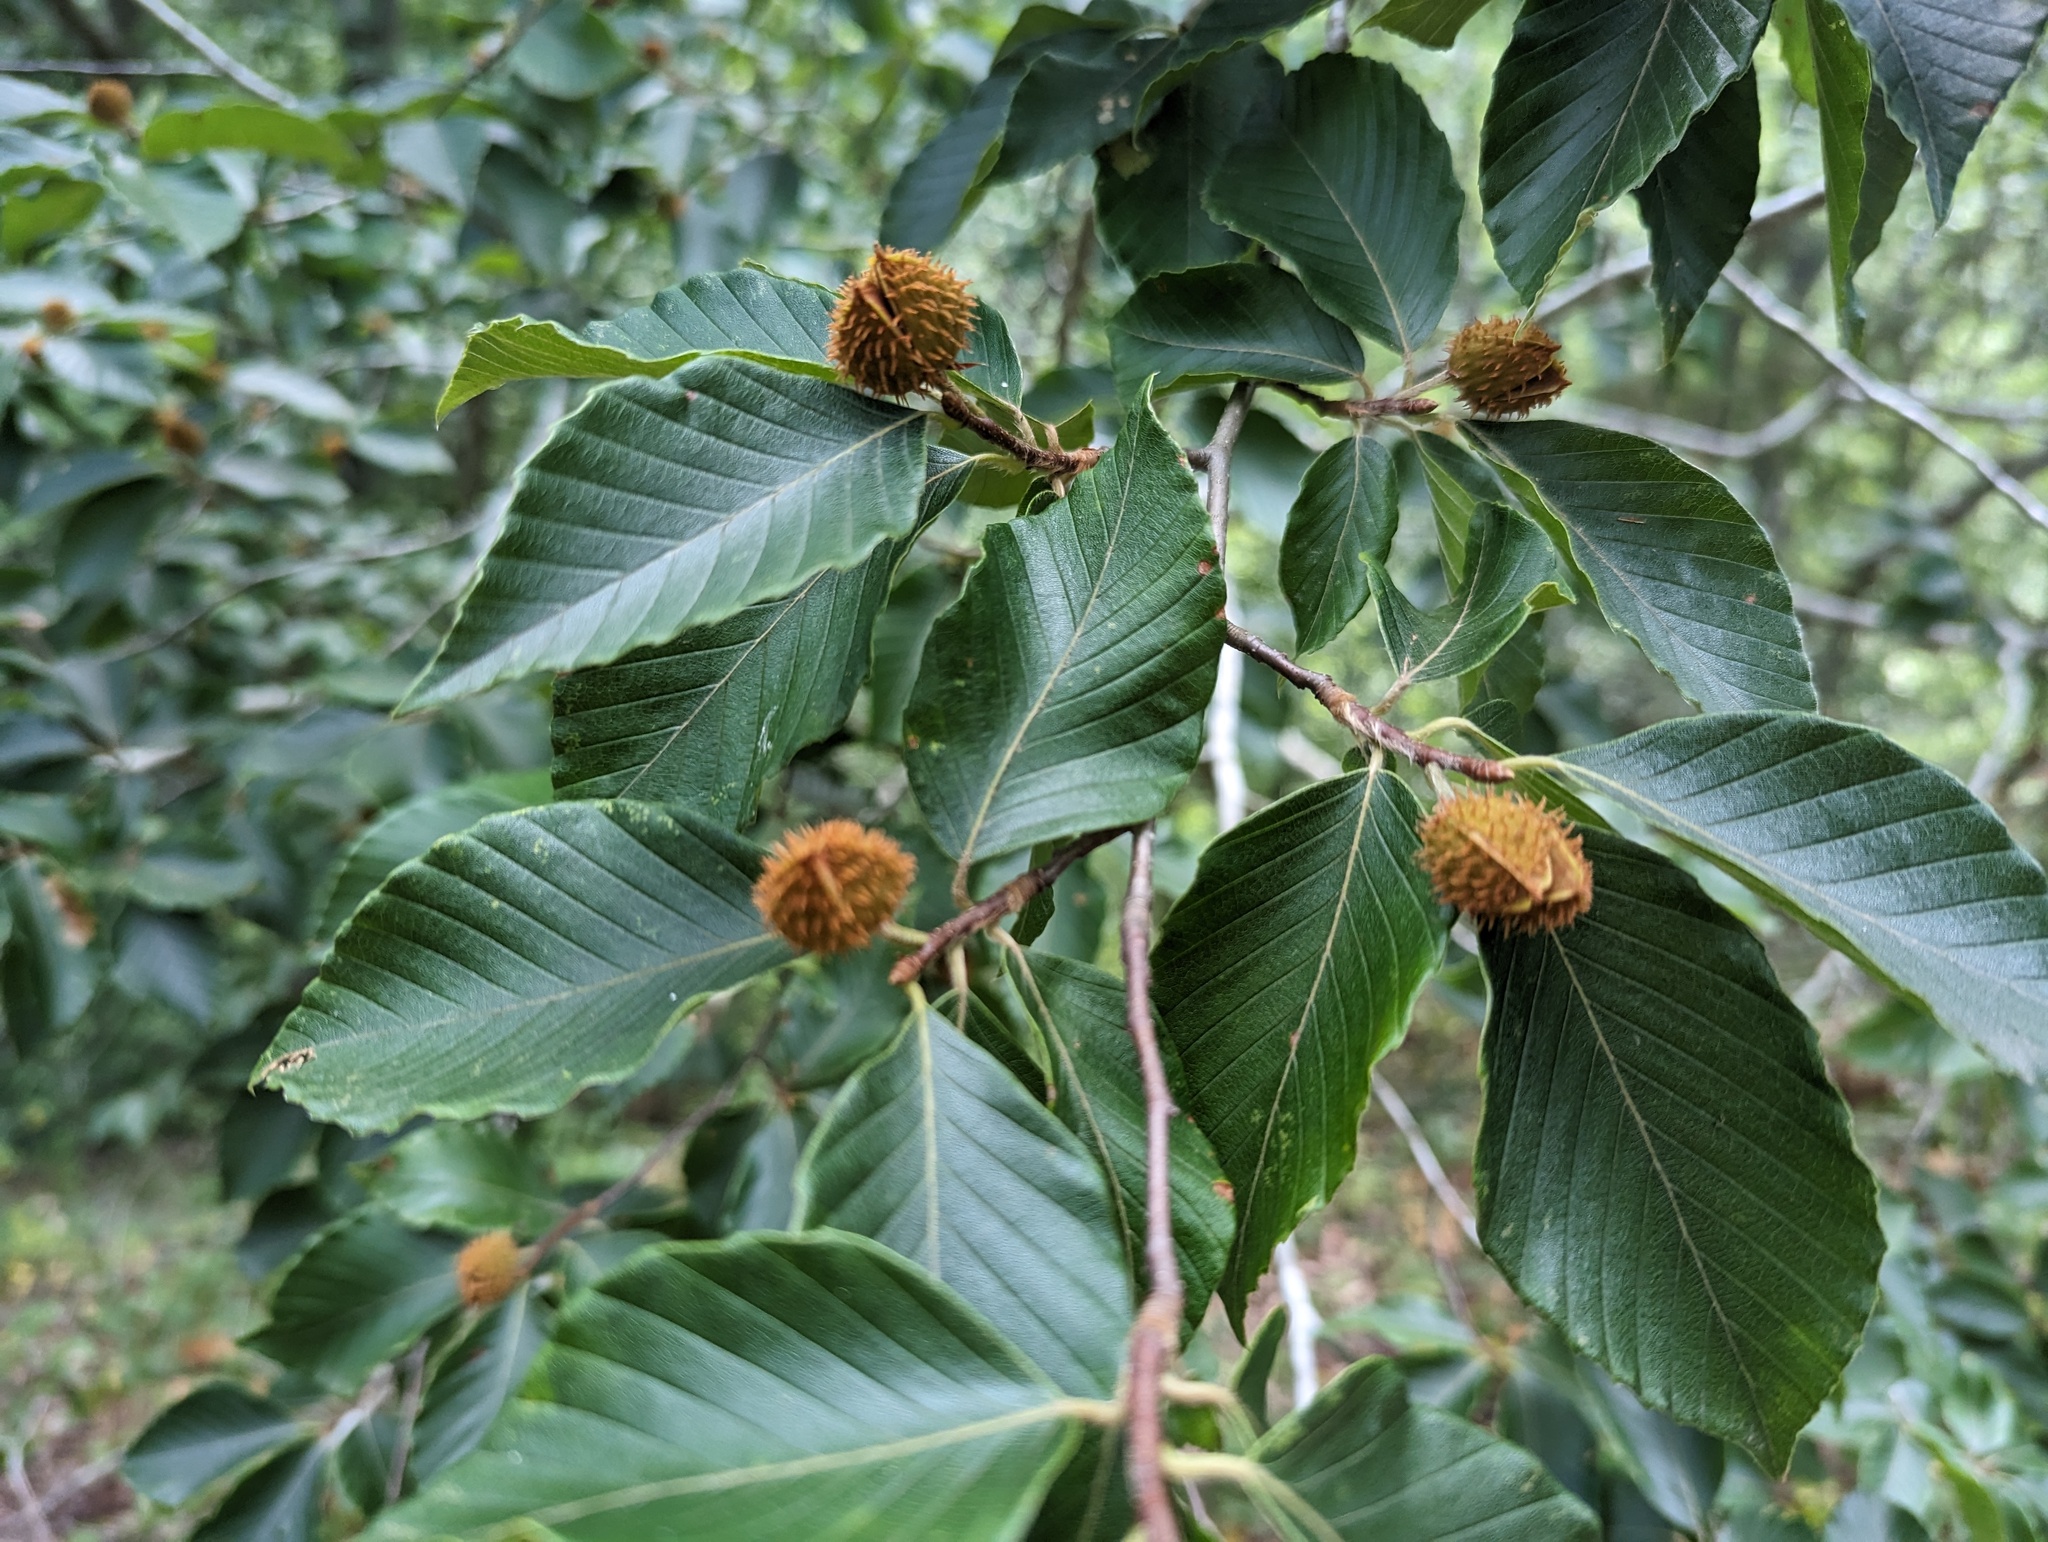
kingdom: Plantae
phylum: Tracheophyta
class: Magnoliopsida
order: Fagales
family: Fagaceae
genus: Fagus
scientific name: Fagus grandifolia
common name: American beech
